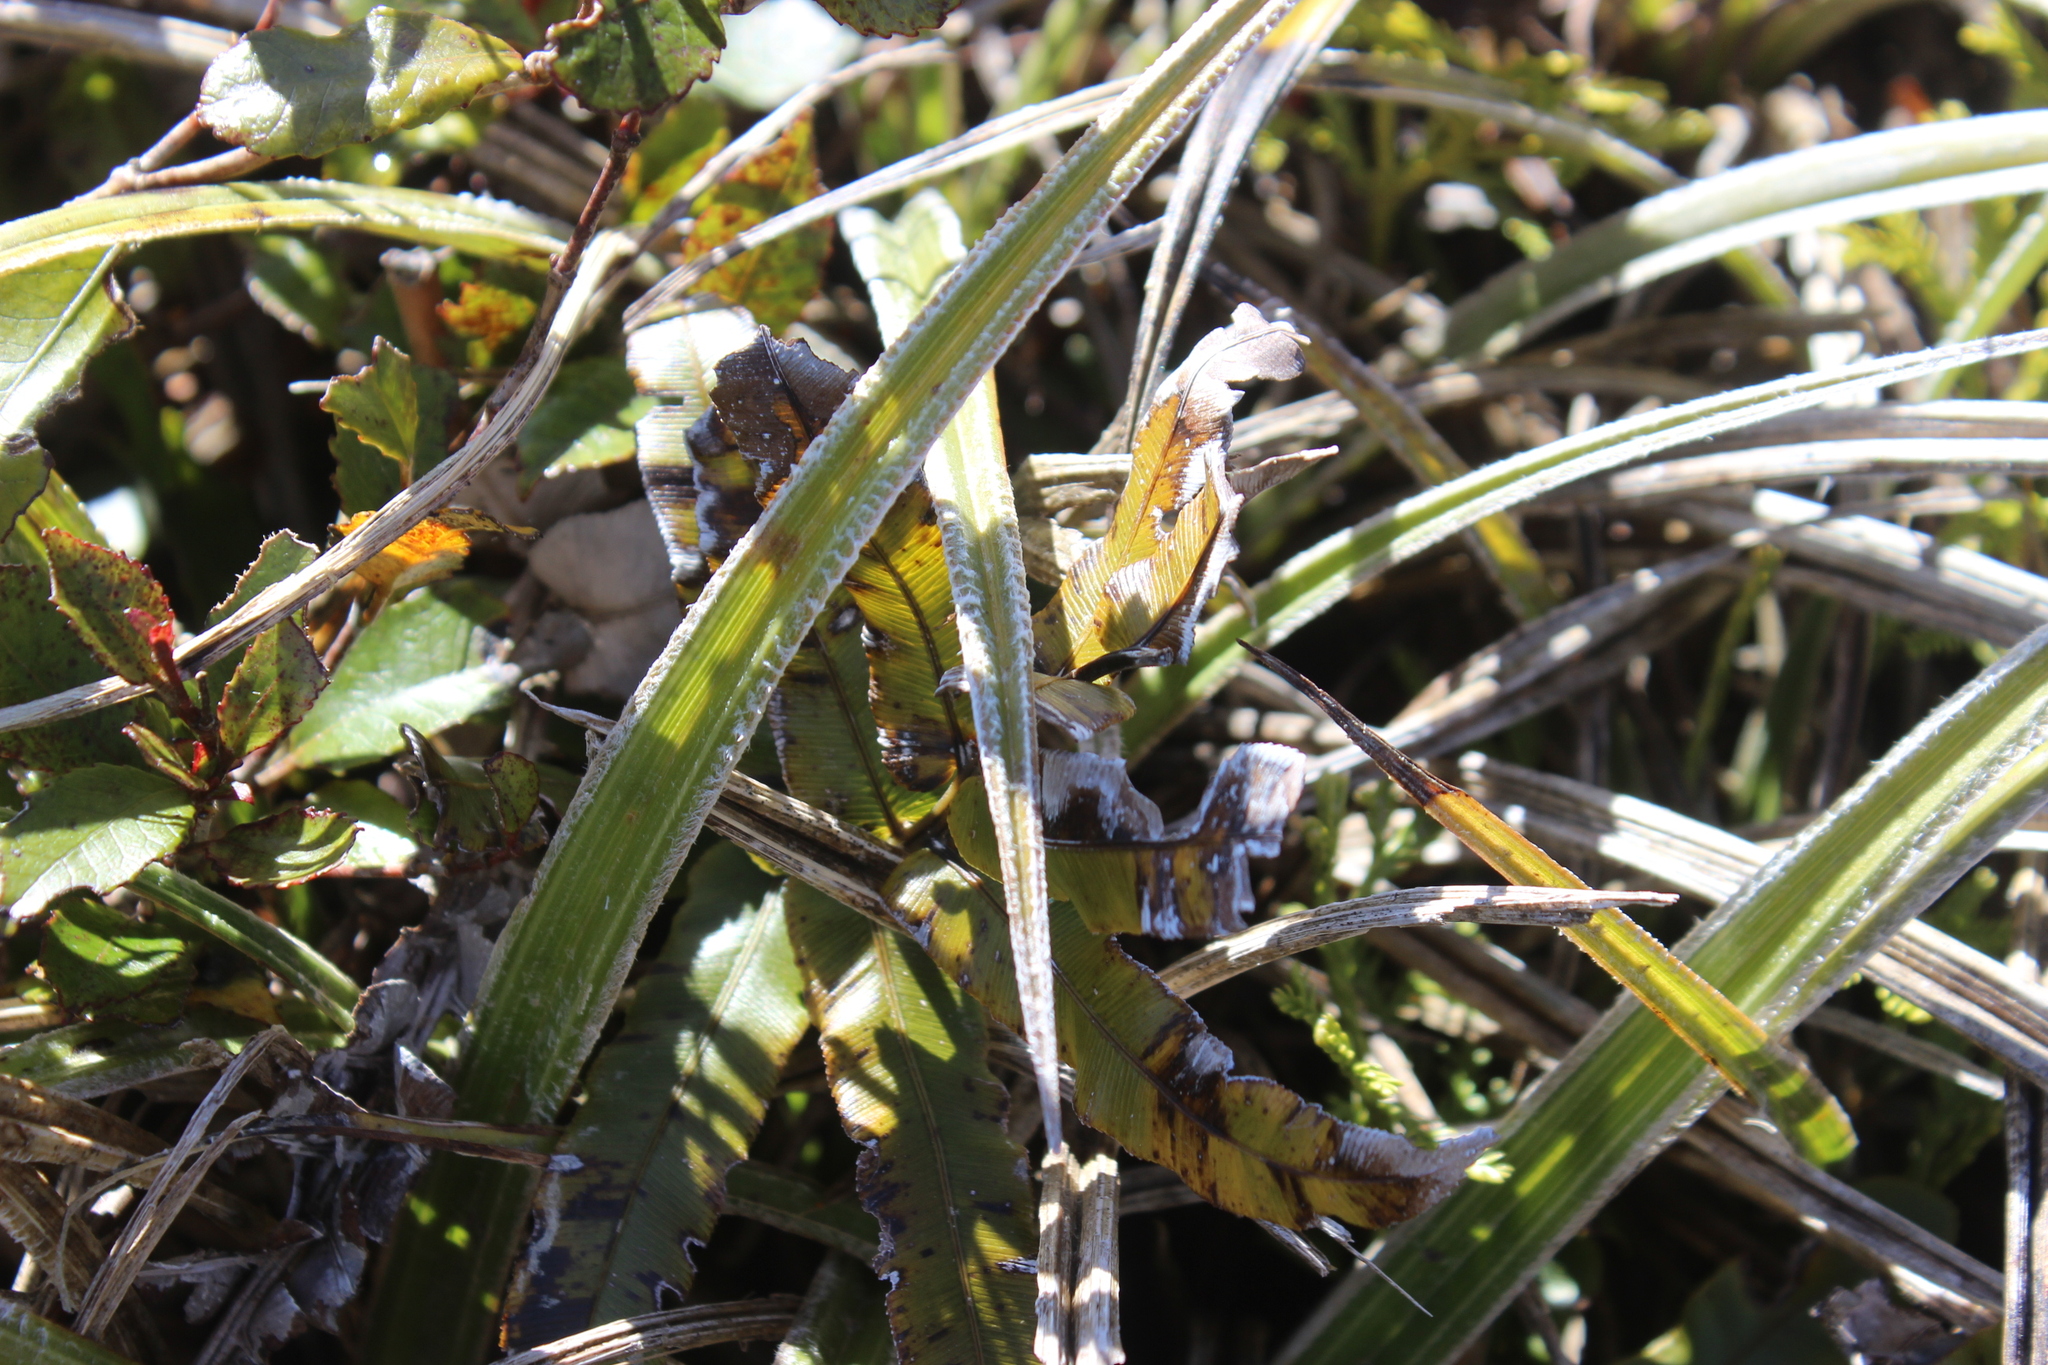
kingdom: Plantae
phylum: Tracheophyta
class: Liliopsida
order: Asparagales
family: Asteliaceae
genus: Astelia
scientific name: Astelia nervosa
